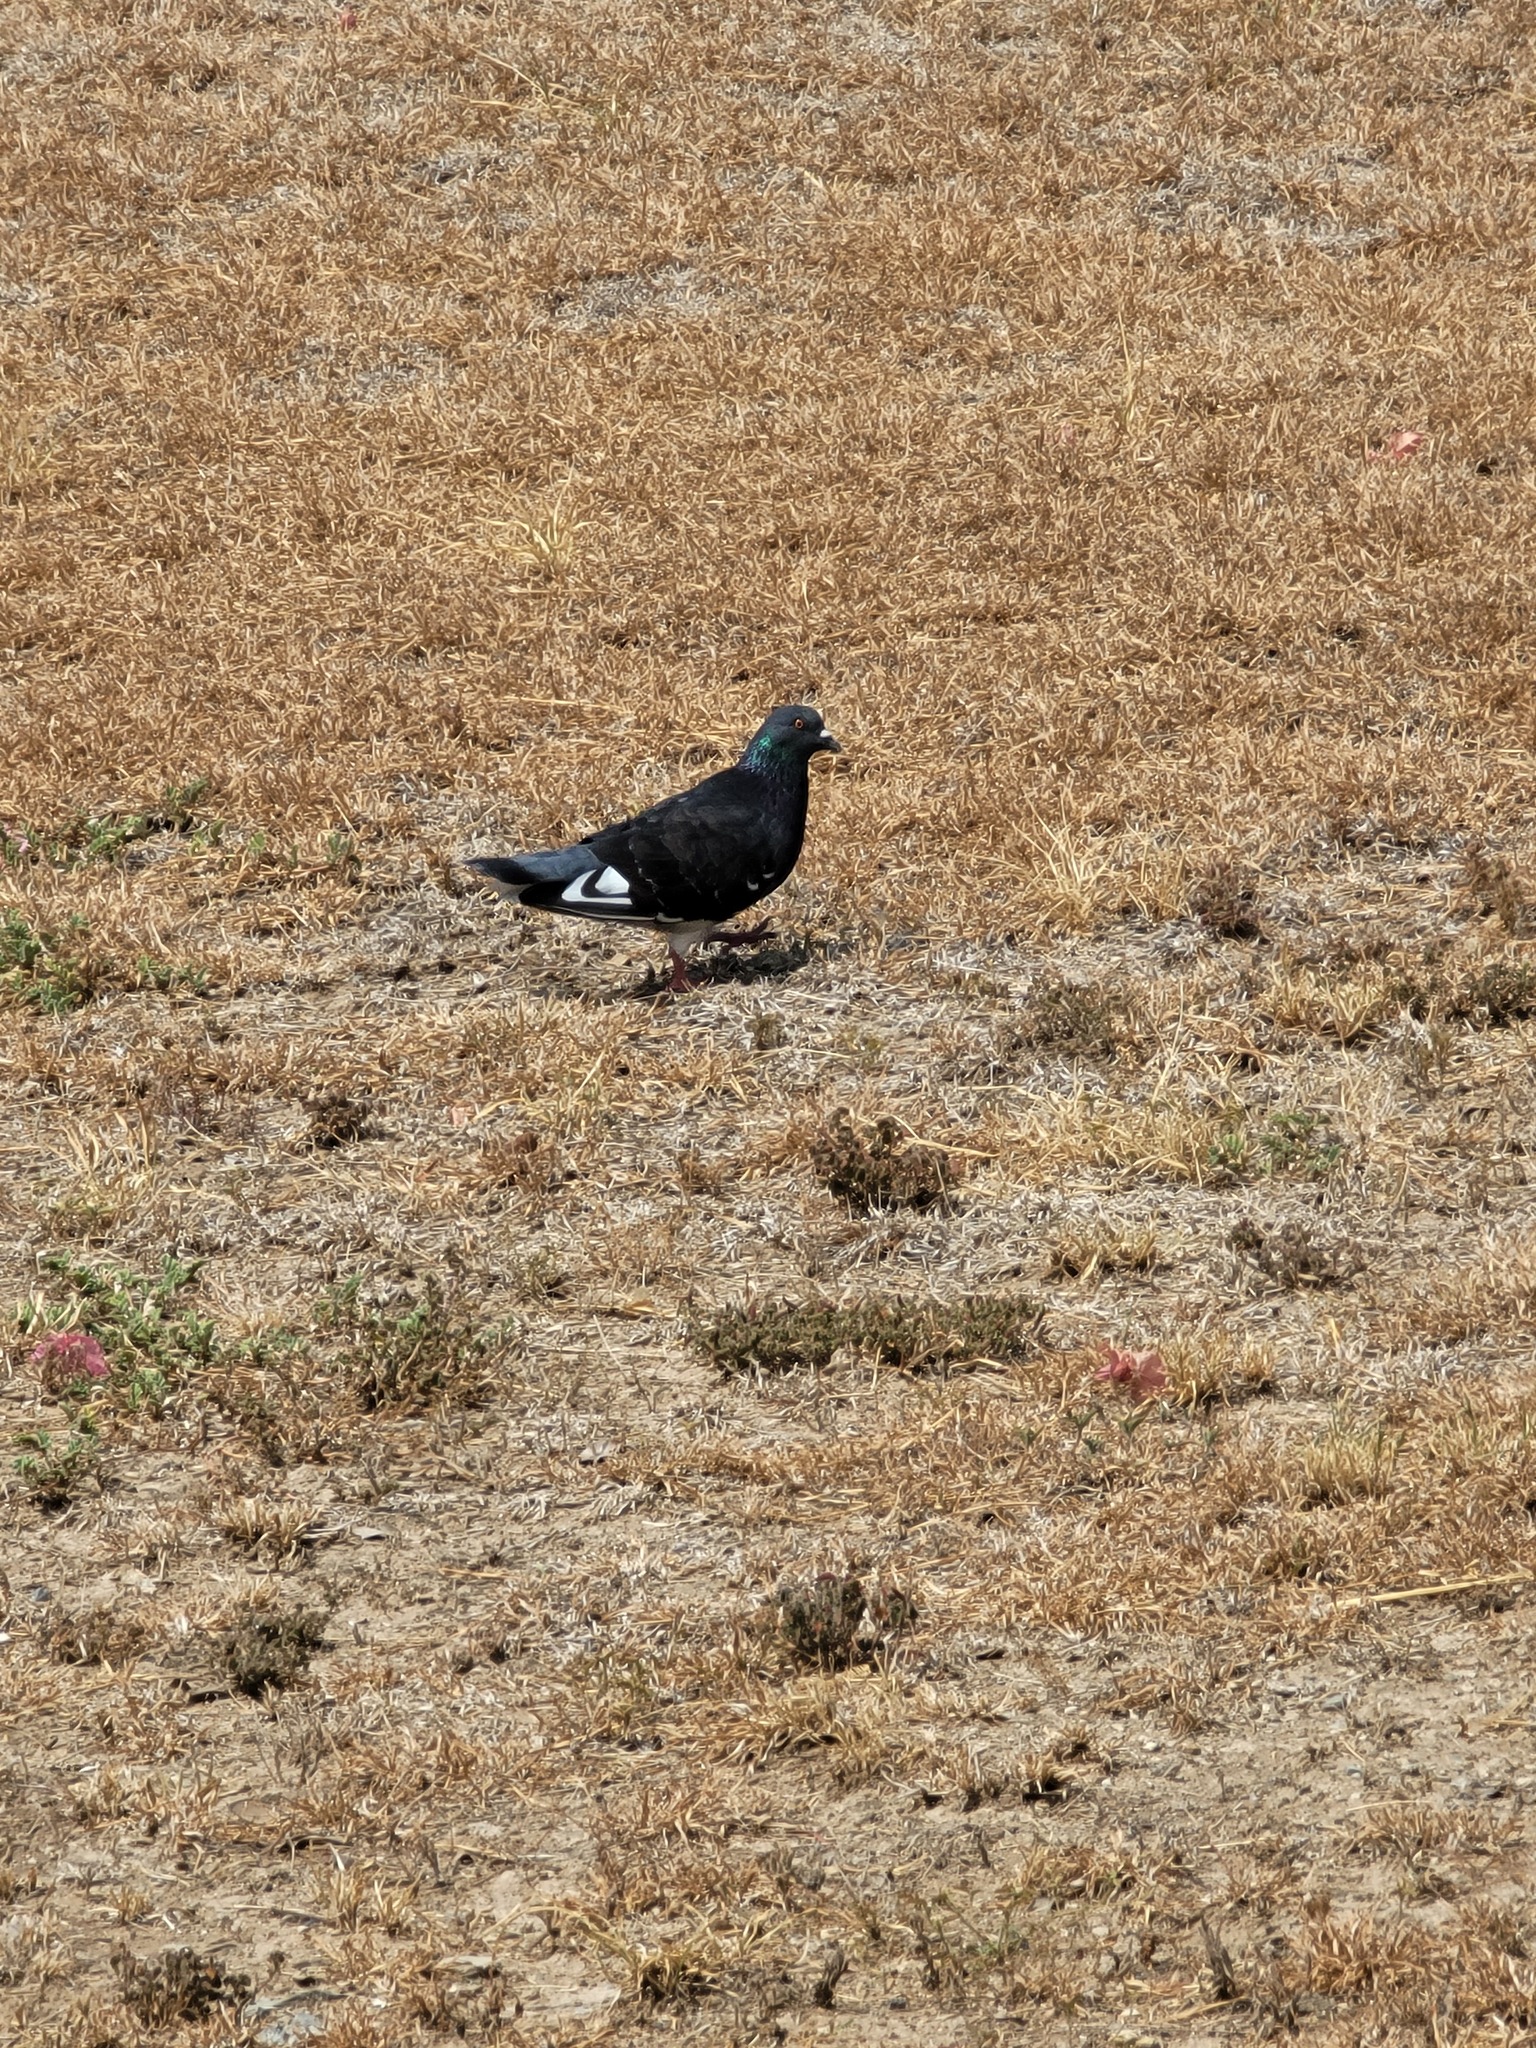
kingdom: Animalia
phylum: Chordata
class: Aves
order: Columbiformes
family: Columbidae
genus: Columba
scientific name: Columba livia
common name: Rock pigeon
